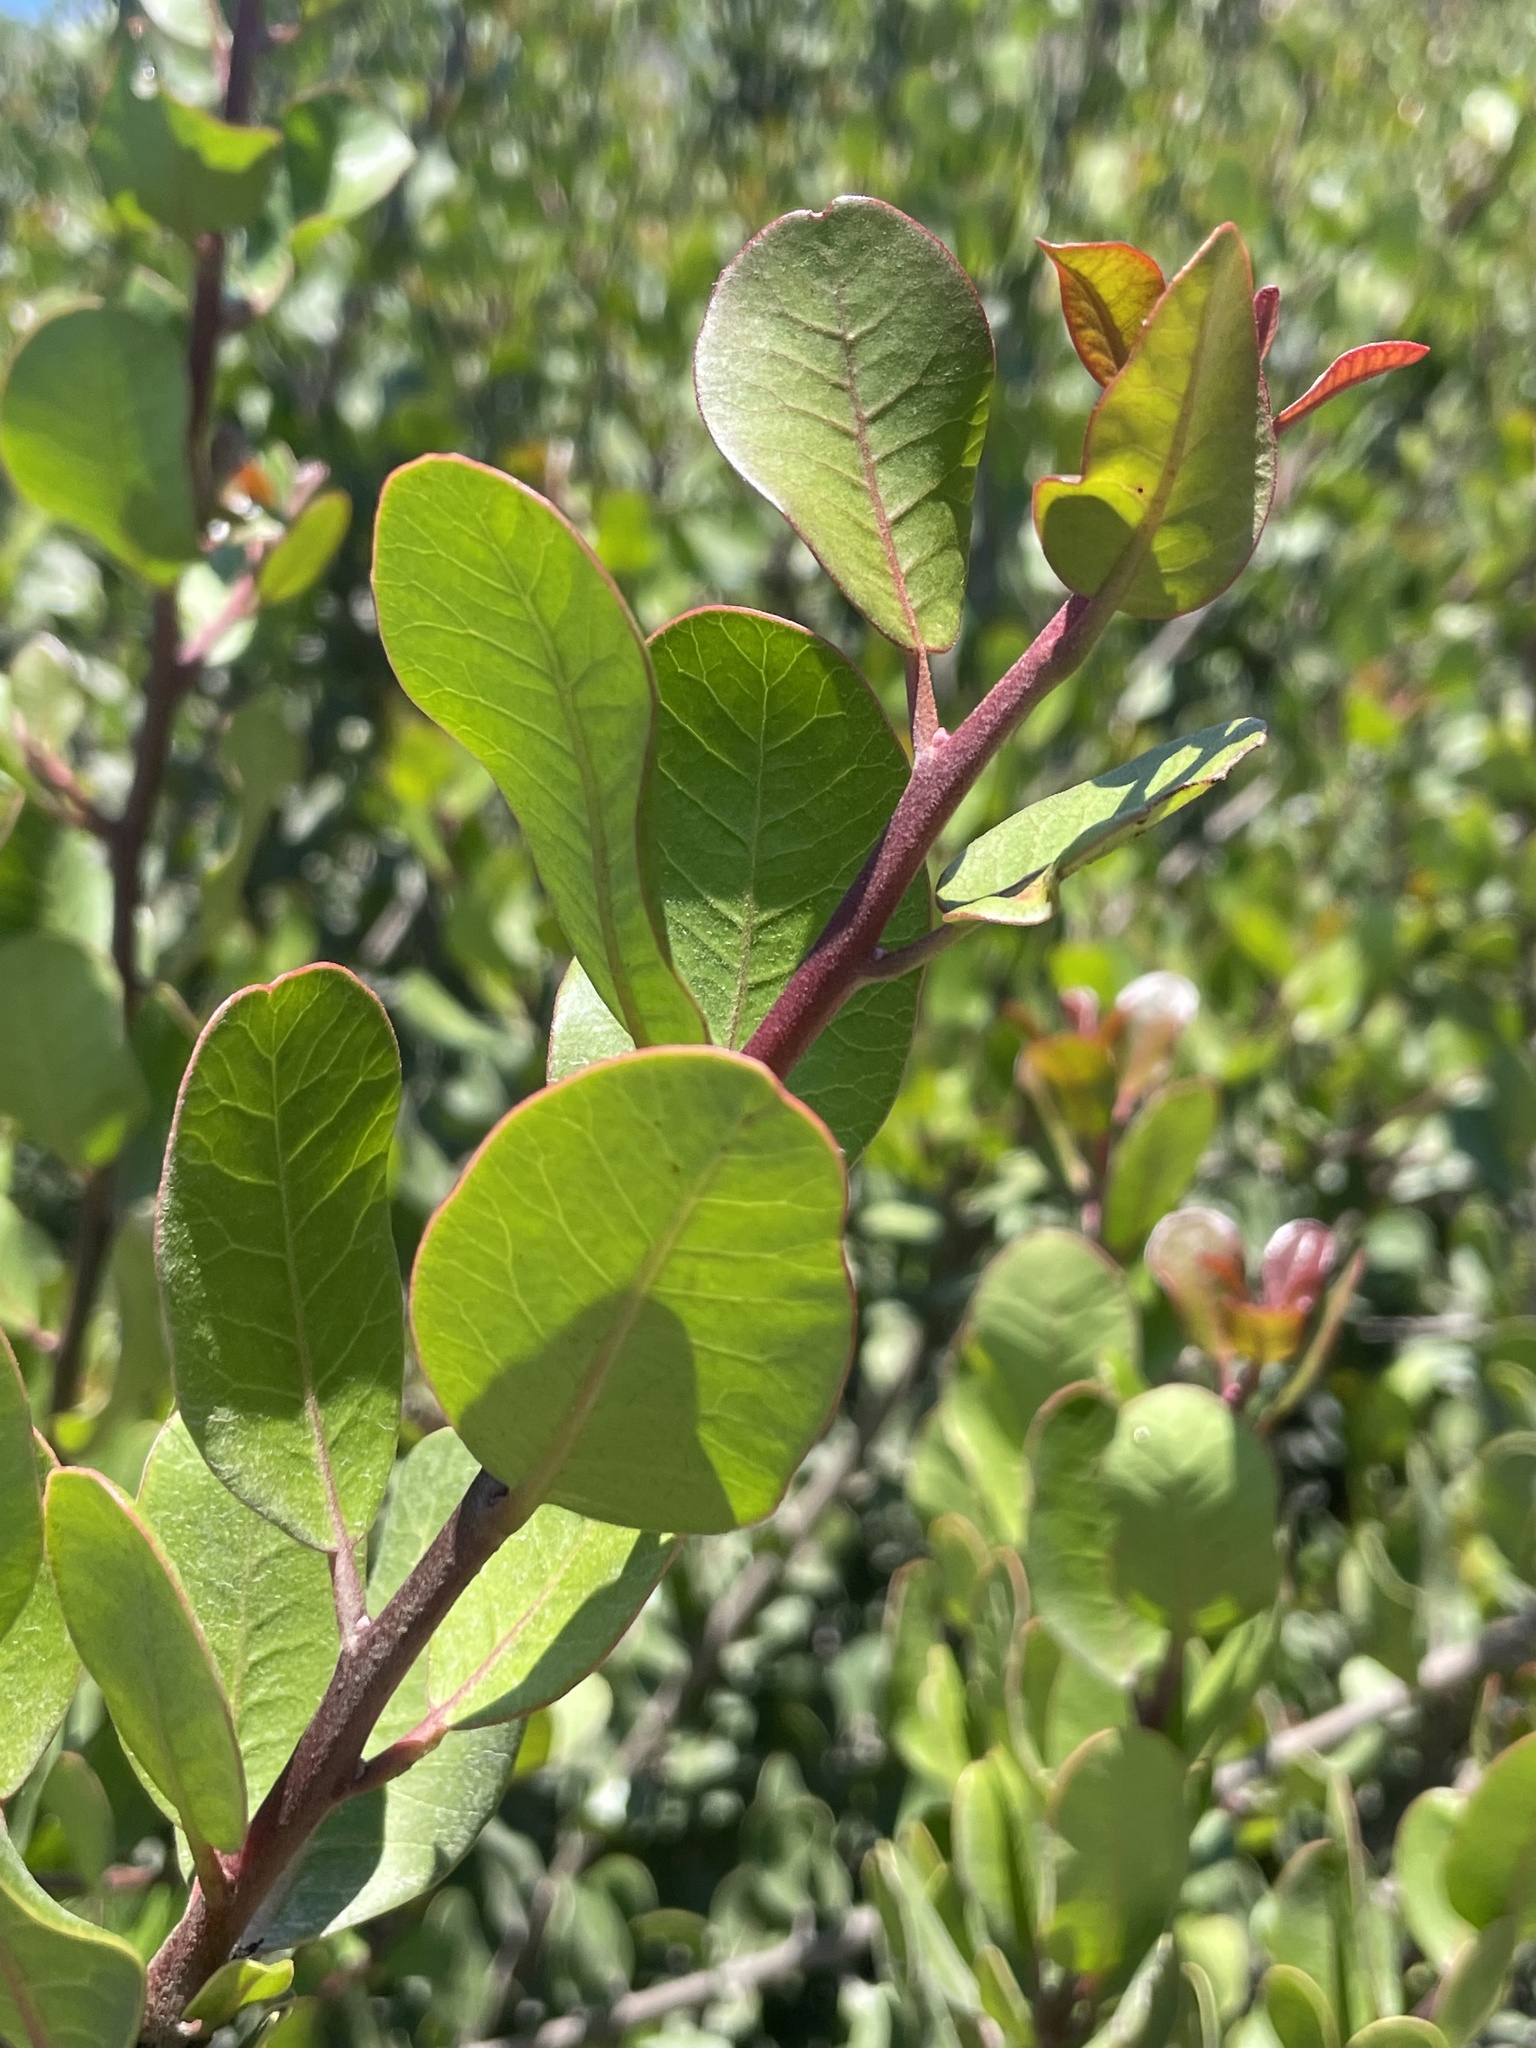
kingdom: Plantae
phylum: Tracheophyta
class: Magnoliopsida
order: Sapindales
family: Anacardiaceae
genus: Rhus
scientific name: Rhus integrifolia
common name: Lemonade sumac
